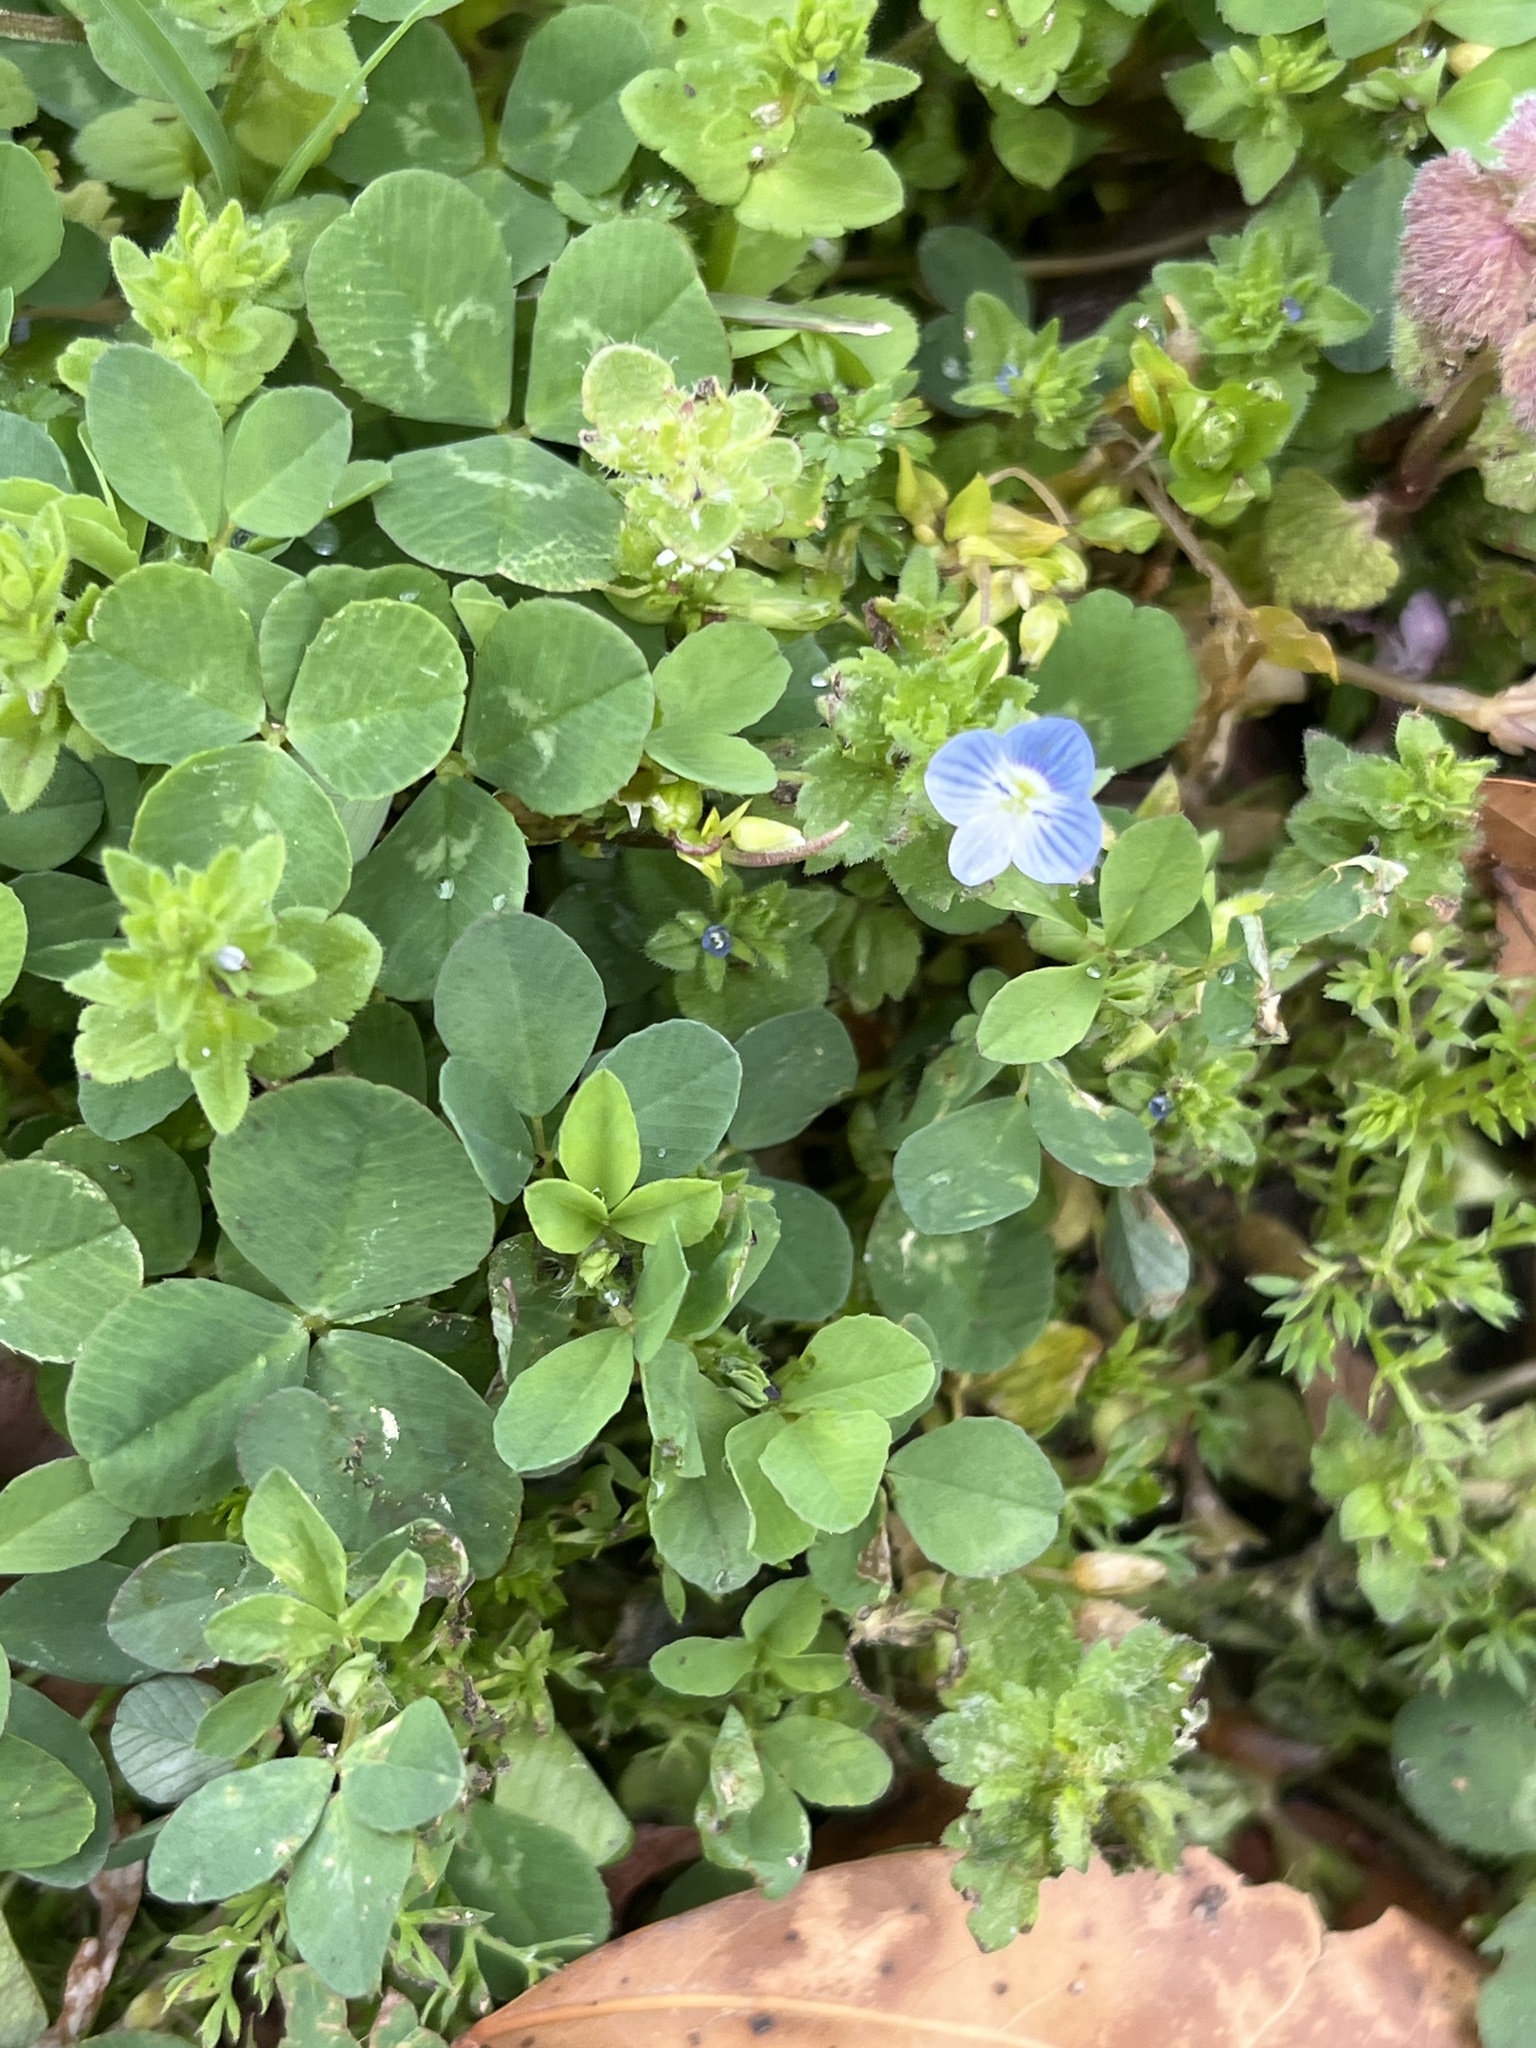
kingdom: Plantae
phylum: Tracheophyta
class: Magnoliopsida
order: Lamiales
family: Plantaginaceae
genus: Veronica
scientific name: Veronica persica
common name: Common field-speedwell
